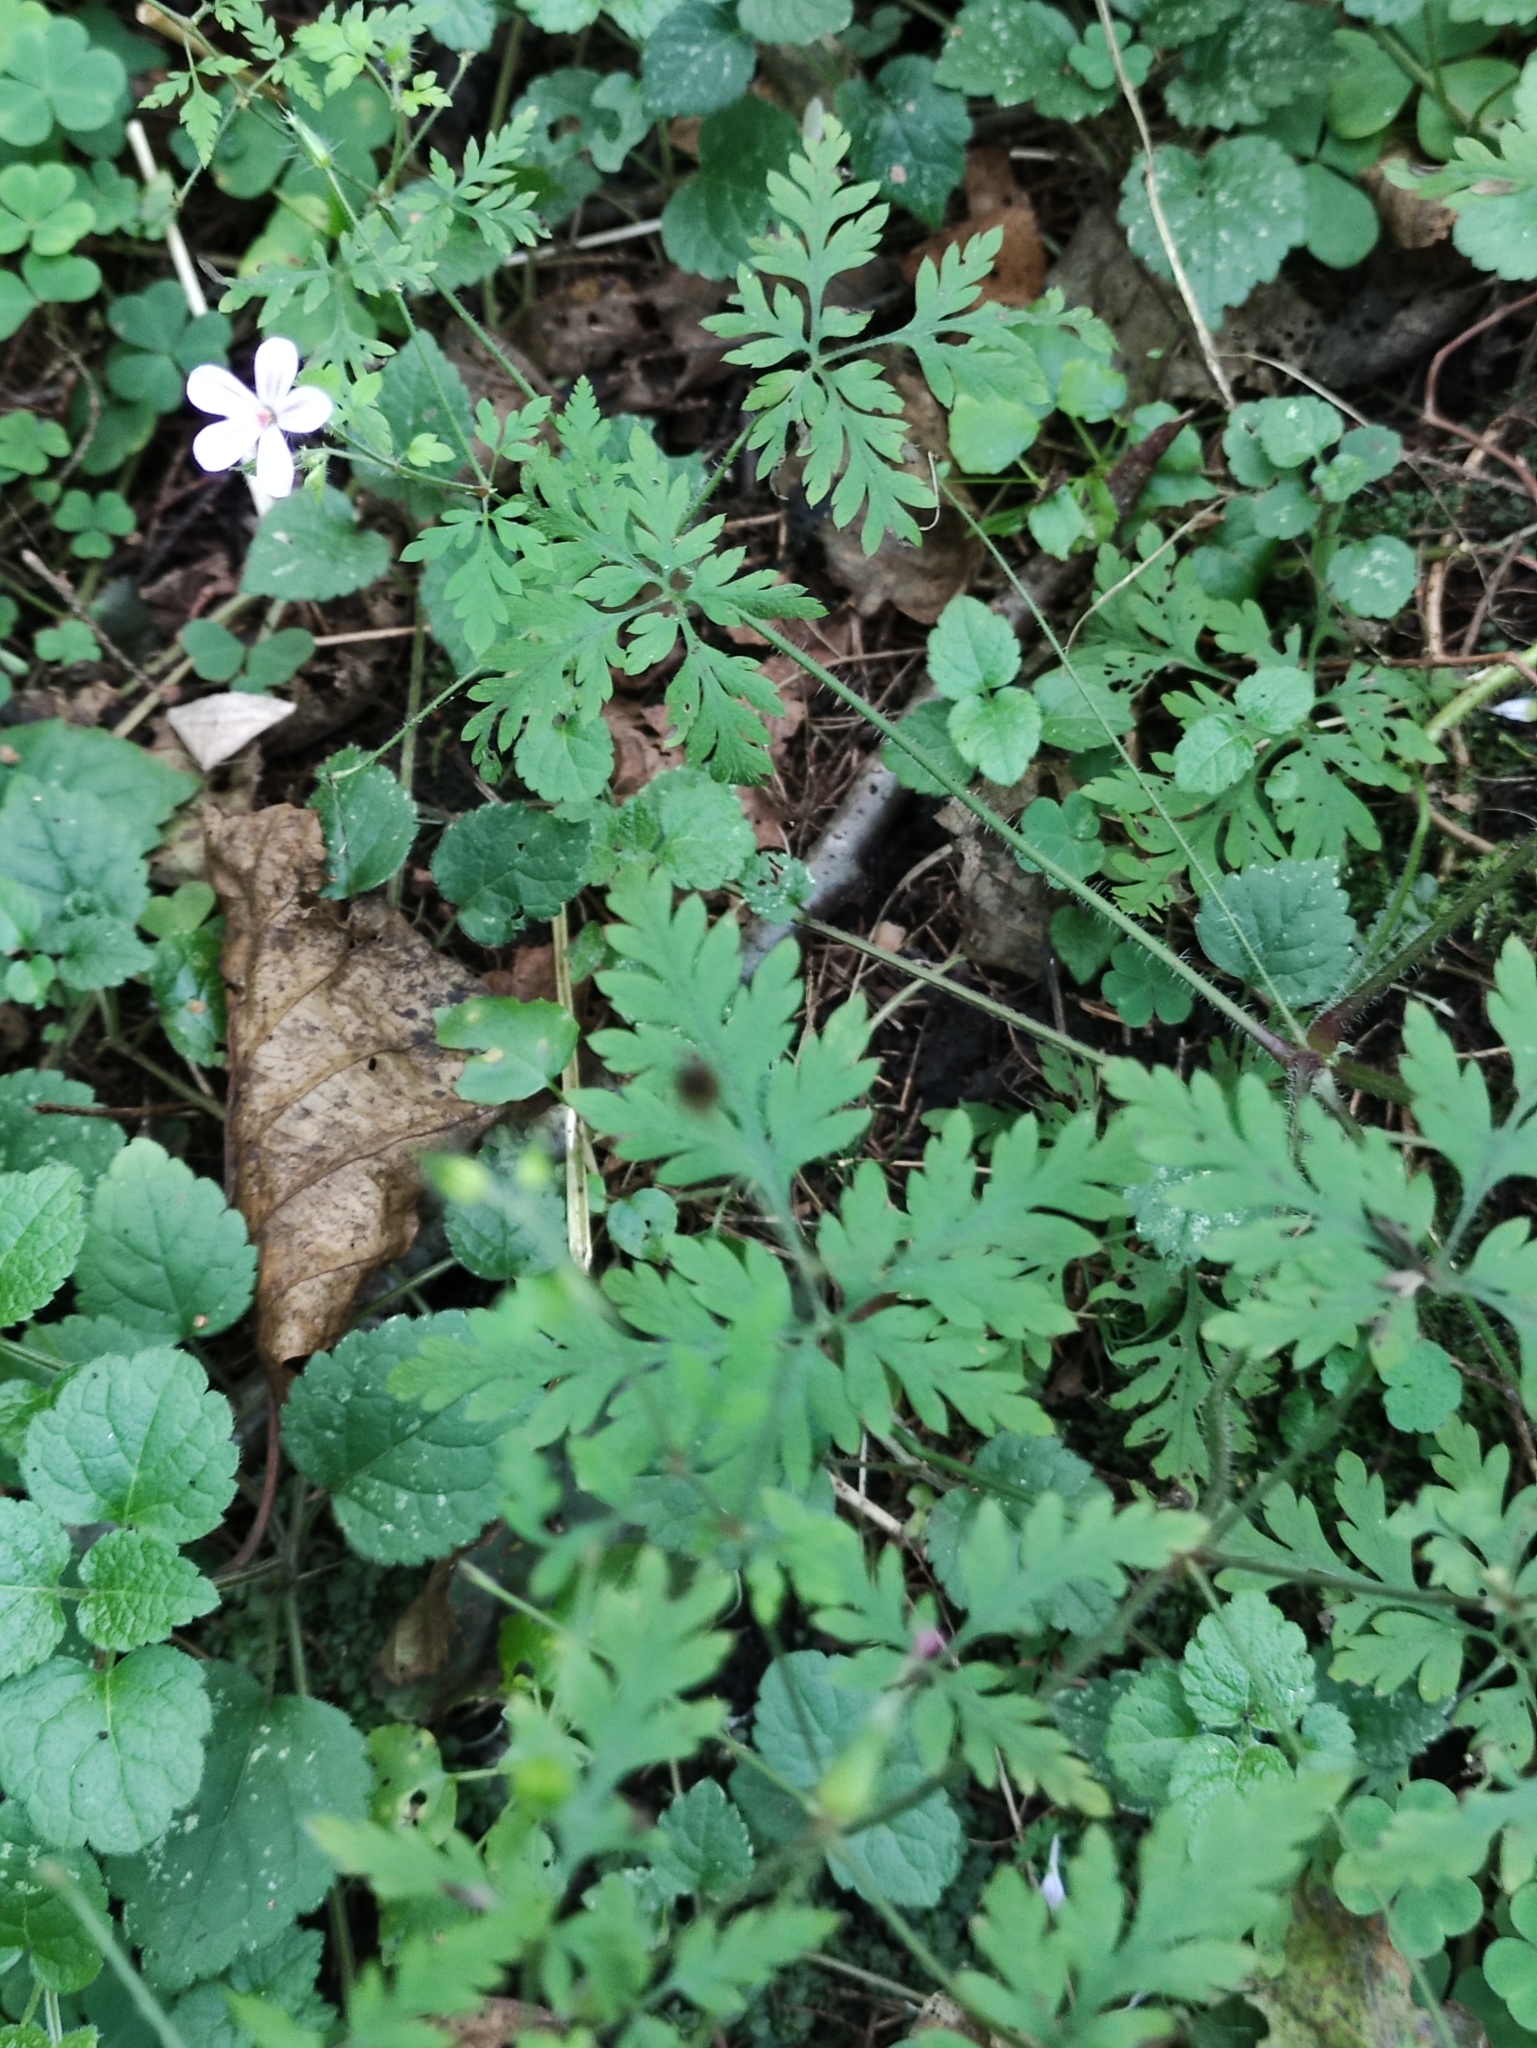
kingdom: Plantae
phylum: Tracheophyta
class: Magnoliopsida
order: Geraniales
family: Geraniaceae
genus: Geranium
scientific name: Geranium robertianum
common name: Herb-robert
